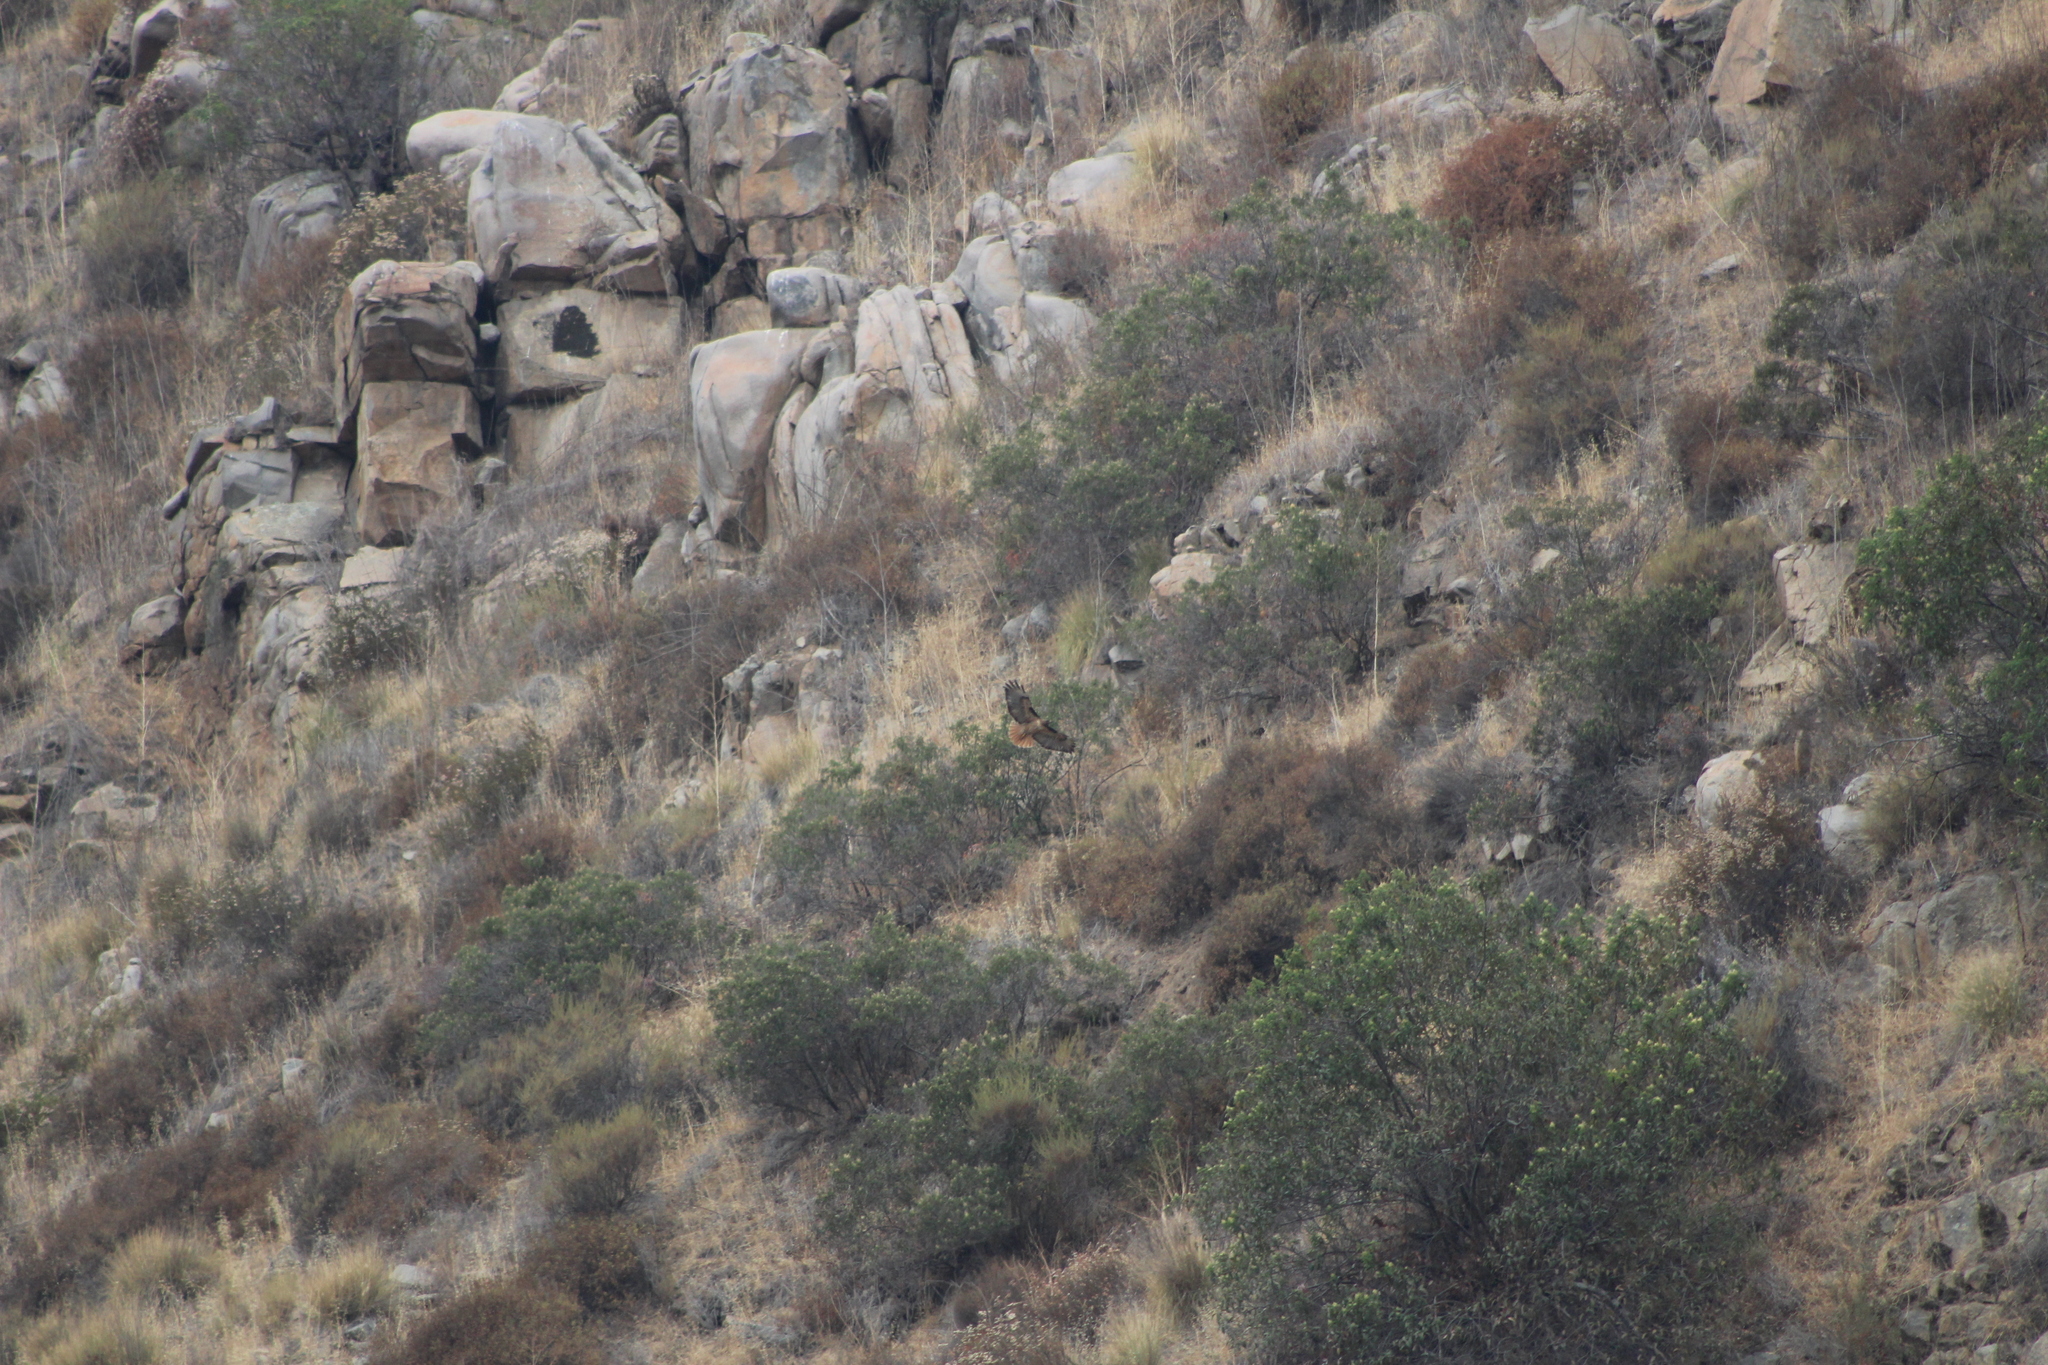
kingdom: Animalia
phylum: Chordata
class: Aves
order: Accipitriformes
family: Accipitridae
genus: Buteo
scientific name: Buteo jamaicensis
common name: Red-tailed hawk
